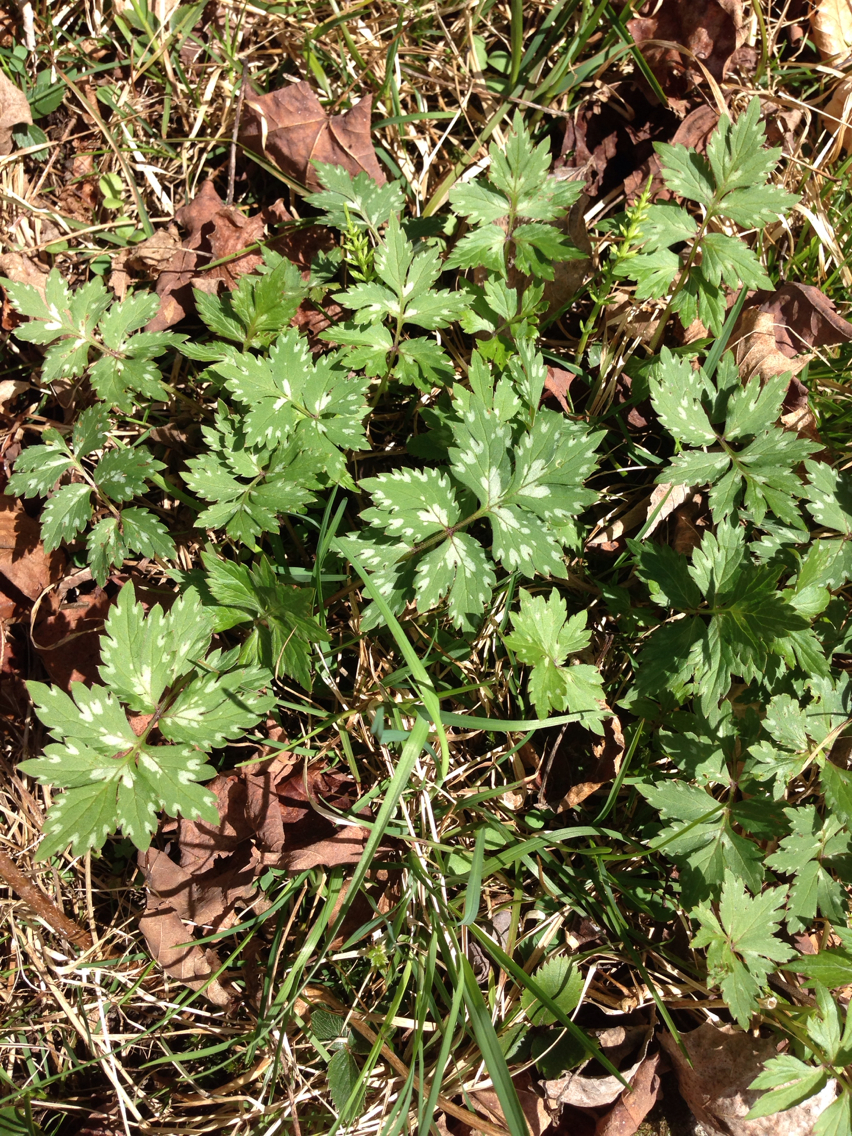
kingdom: Plantae
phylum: Tracheophyta
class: Magnoliopsida
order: Boraginales
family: Hydrophyllaceae
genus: Hydrophyllum
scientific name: Hydrophyllum virginianum
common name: Virginia waterleaf
